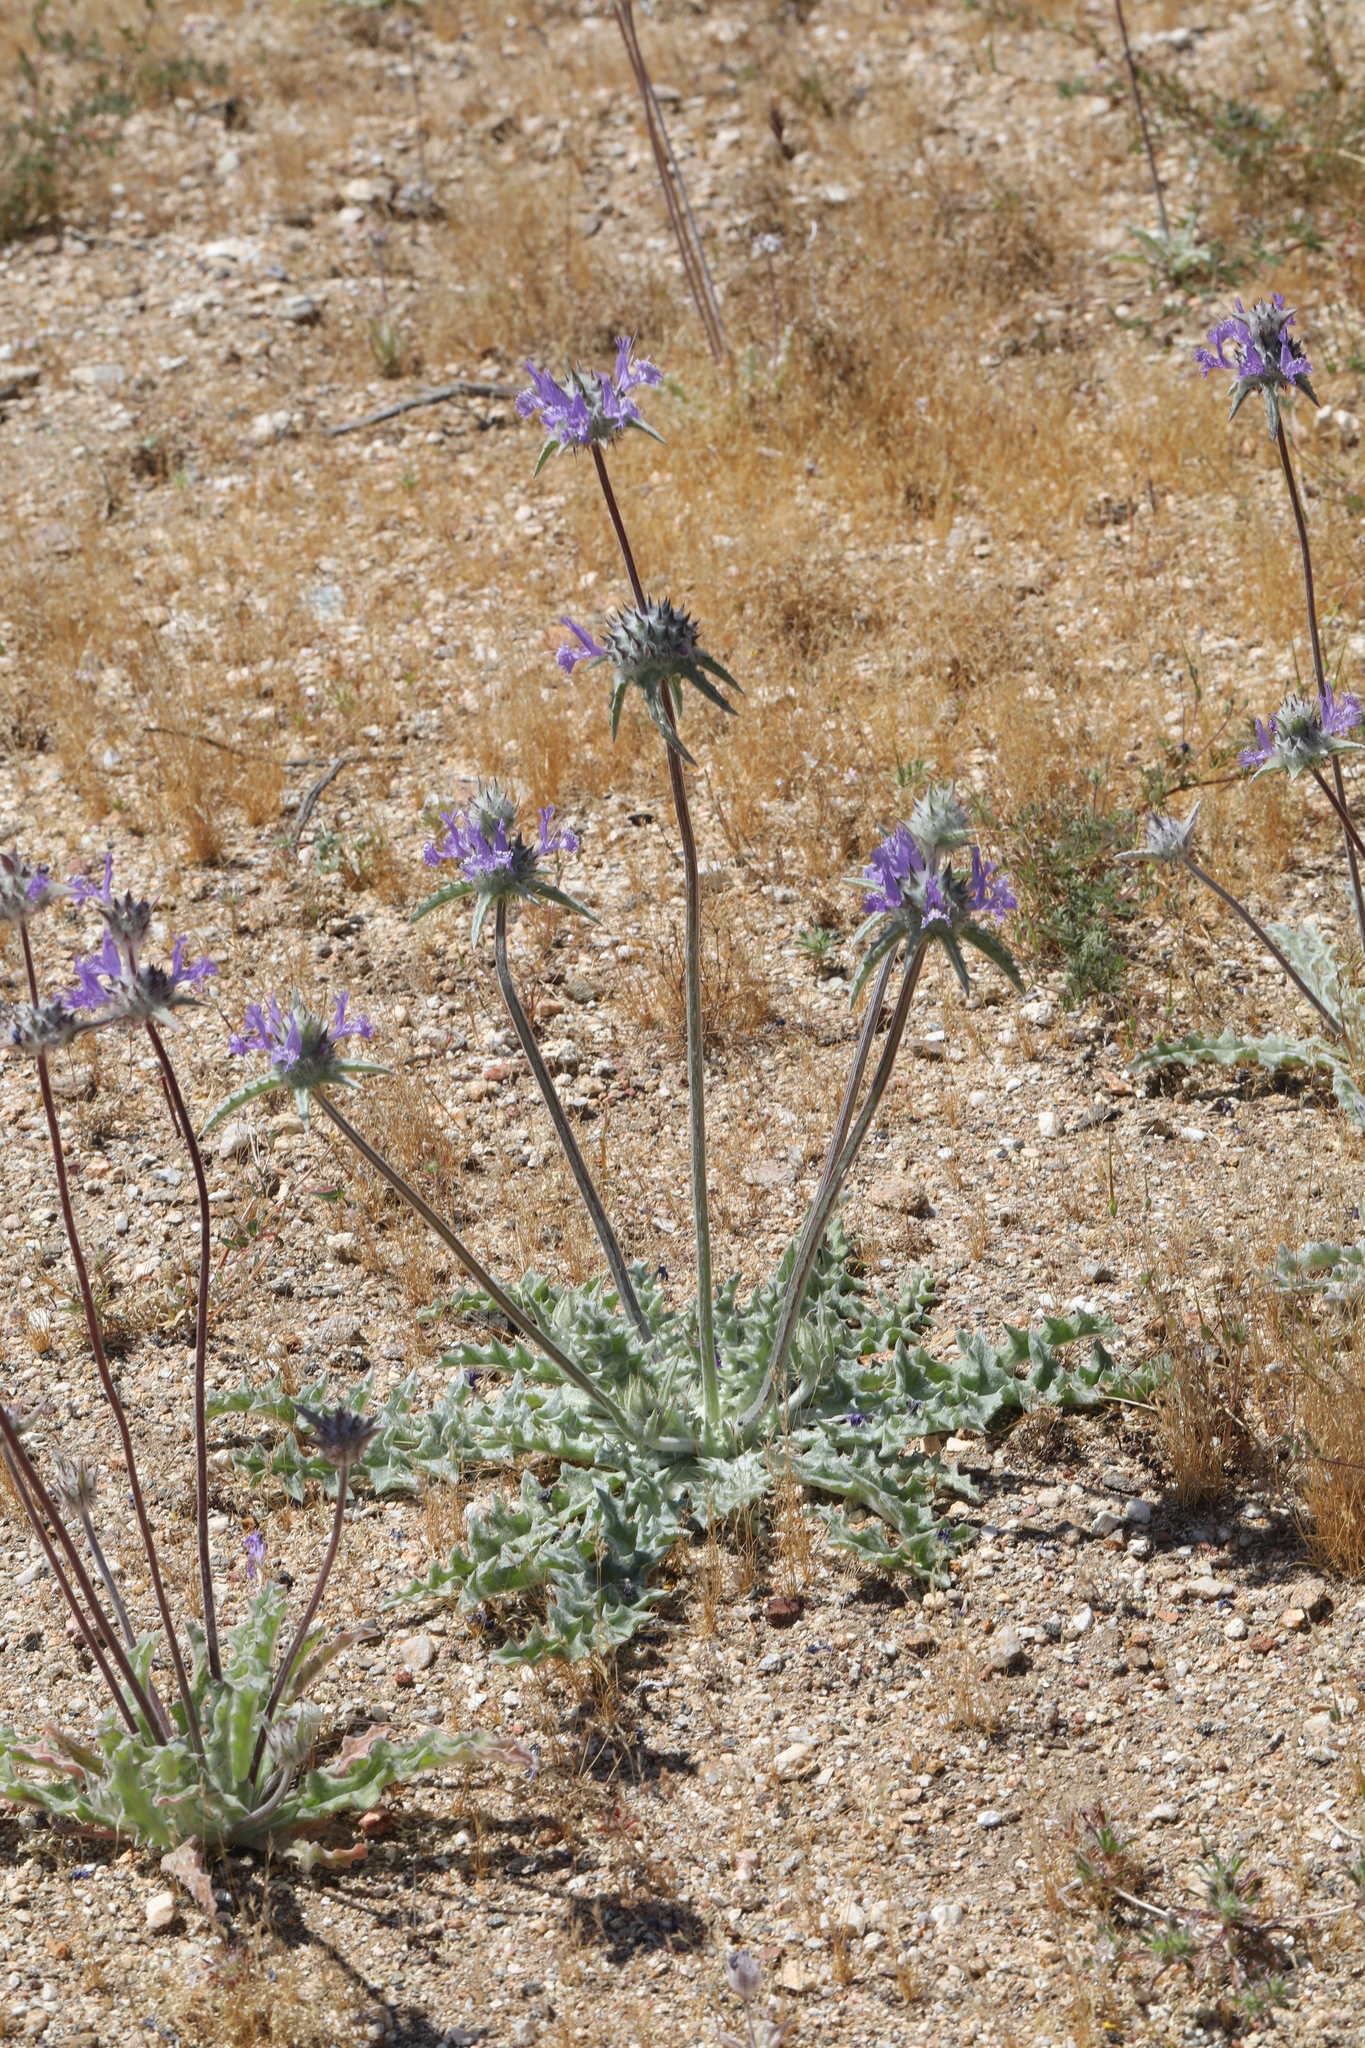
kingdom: Plantae
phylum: Tracheophyta
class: Magnoliopsida
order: Lamiales
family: Lamiaceae
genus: Salvia
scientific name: Salvia carduacea
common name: Thistle sage
